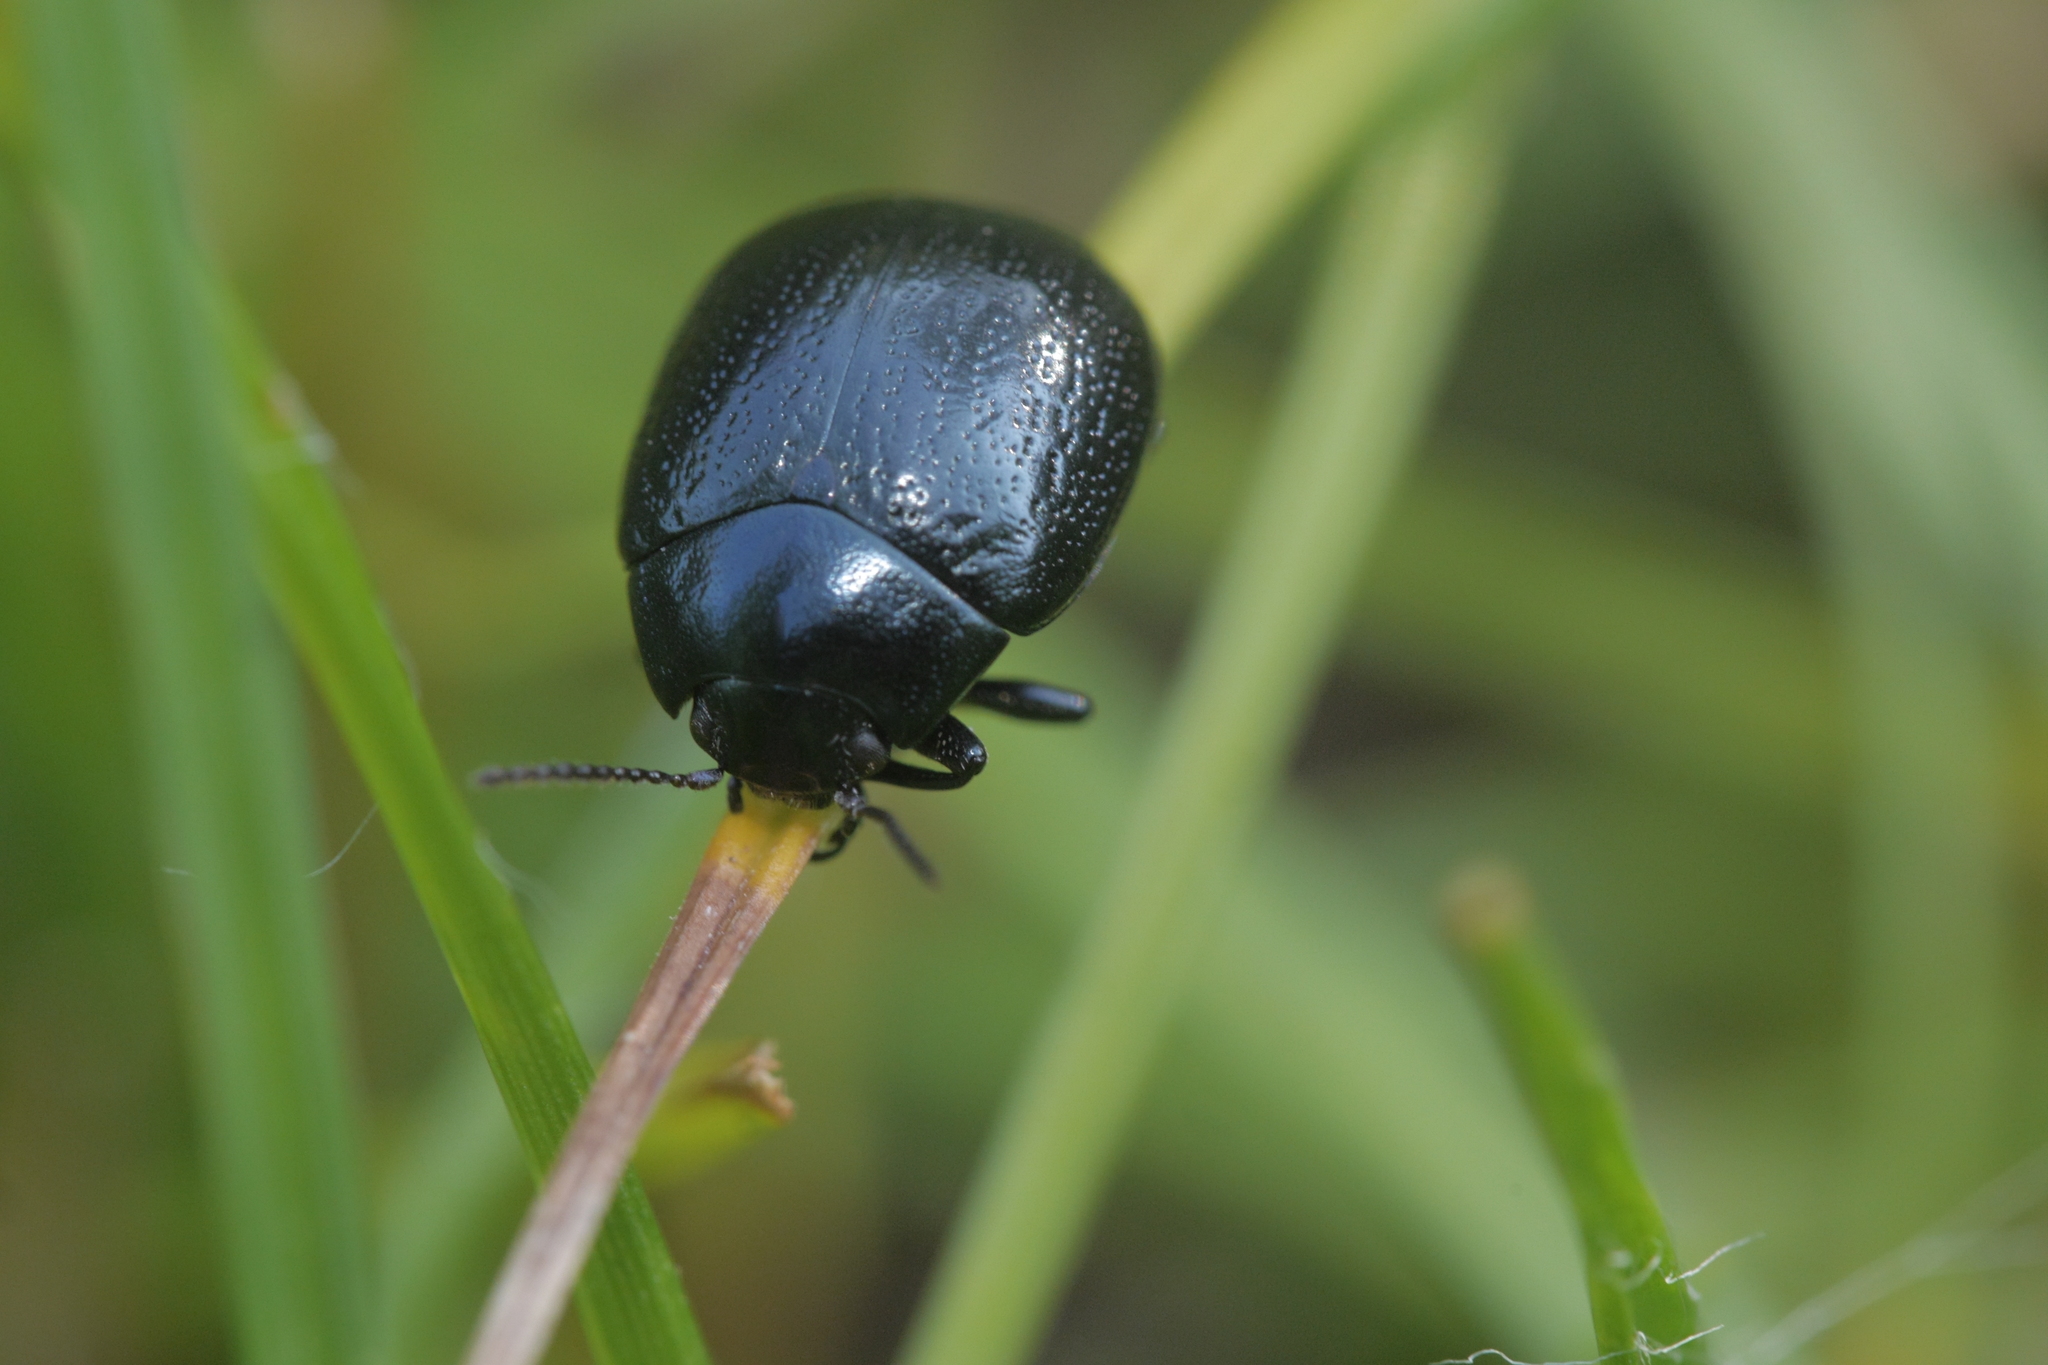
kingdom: Animalia
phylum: Arthropoda
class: Insecta
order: Coleoptera
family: Chrysomelidae
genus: Chrysolina
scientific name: Chrysolina haemoptera
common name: Plantain leaf beetle
